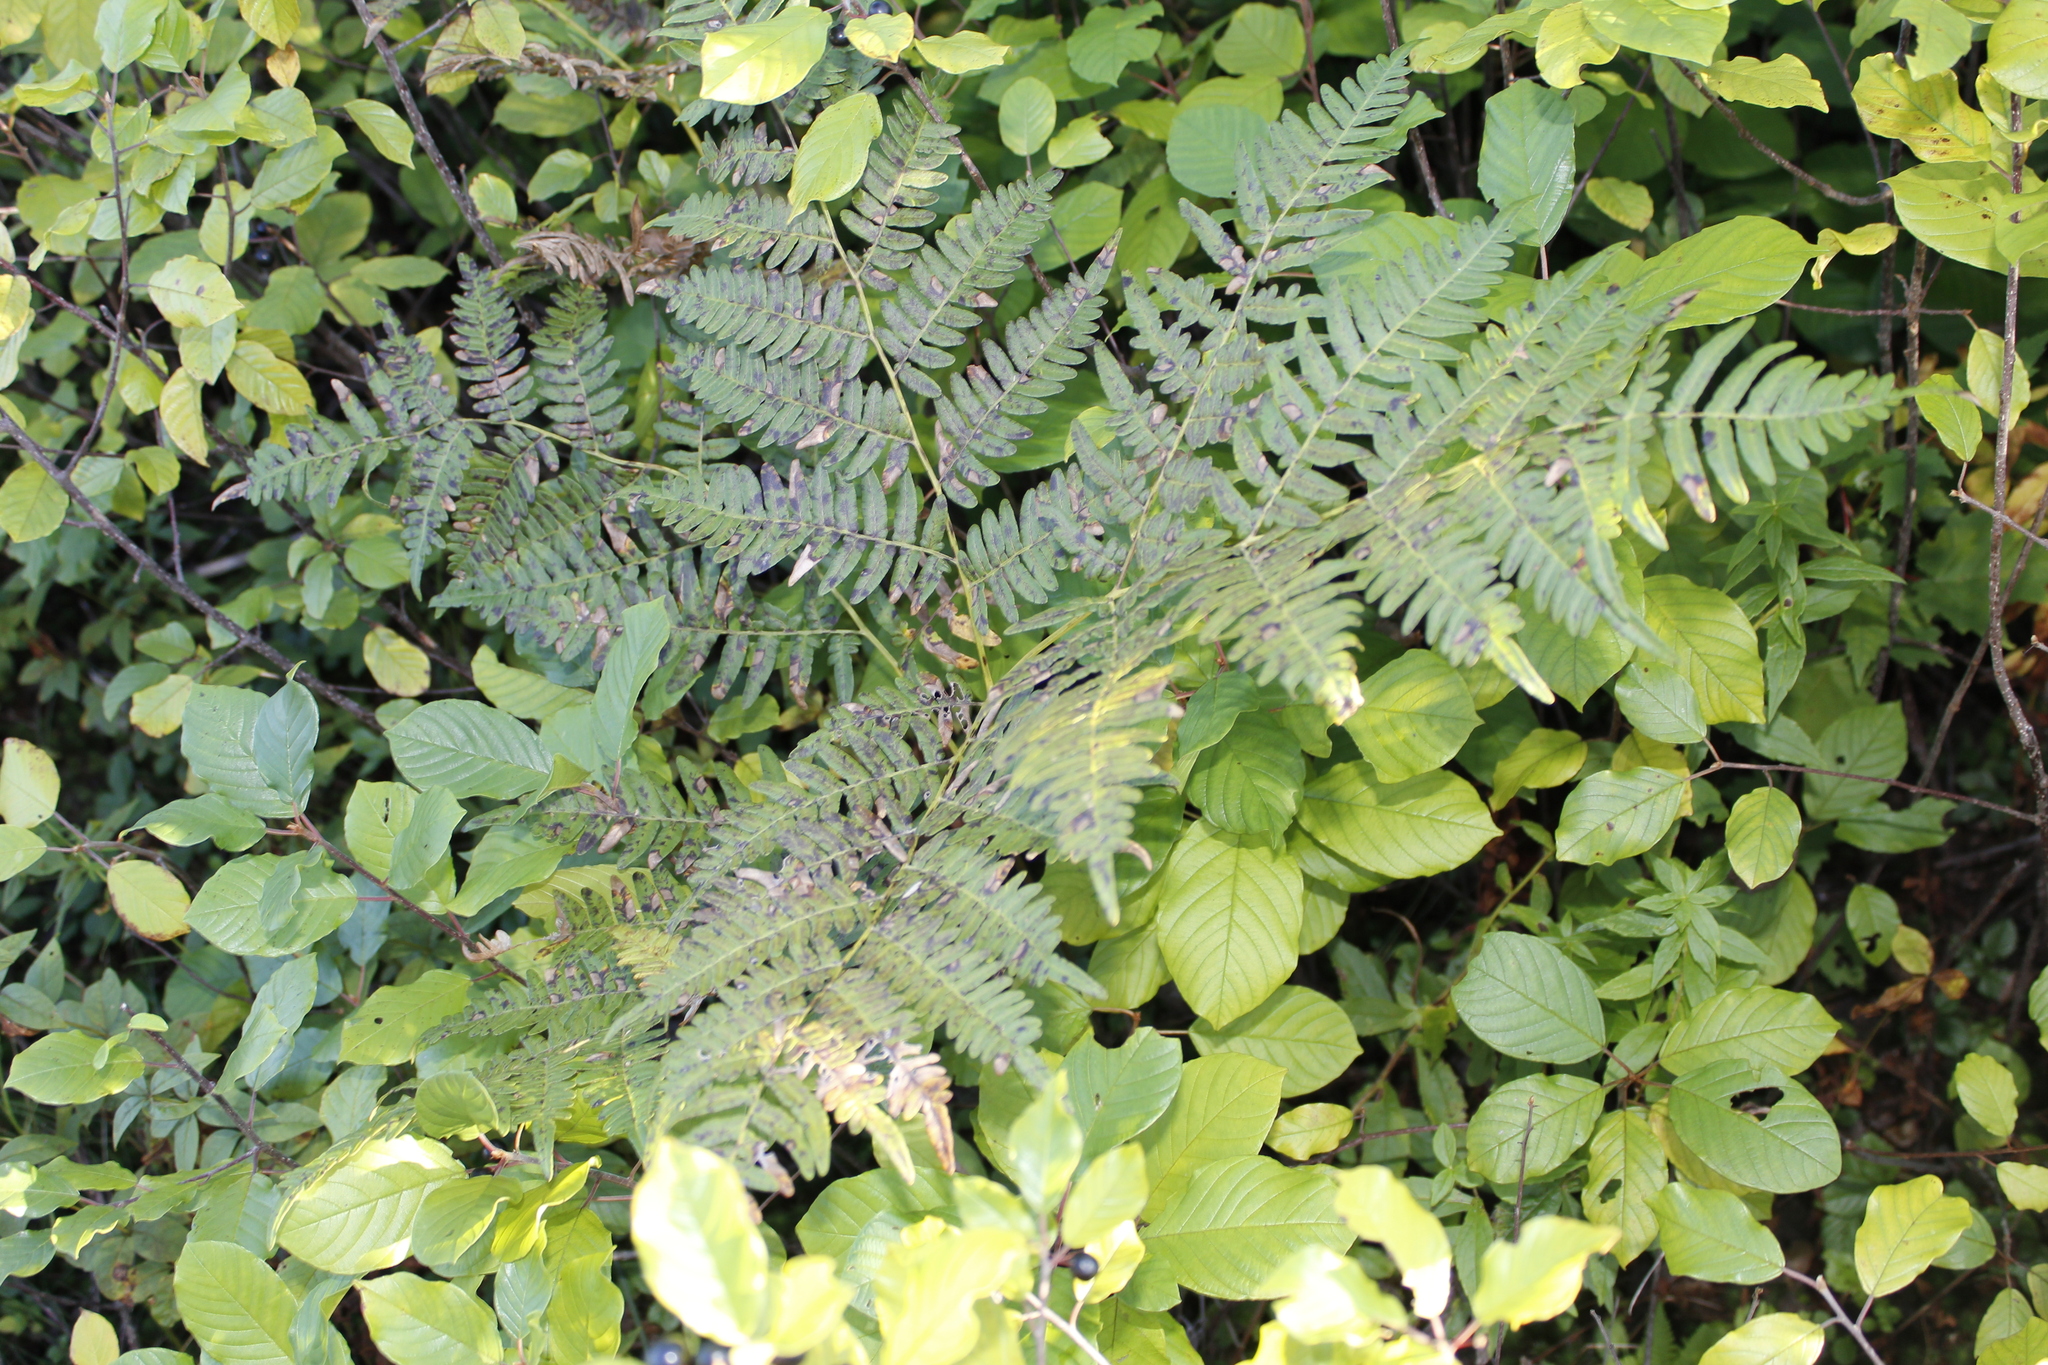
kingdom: Plantae
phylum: Tracheophyta
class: Polypodiopsida
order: Polypodiales
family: Dennstaedtiaceae
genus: Pteridium
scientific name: Pteridium aquilinum
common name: Bracken
